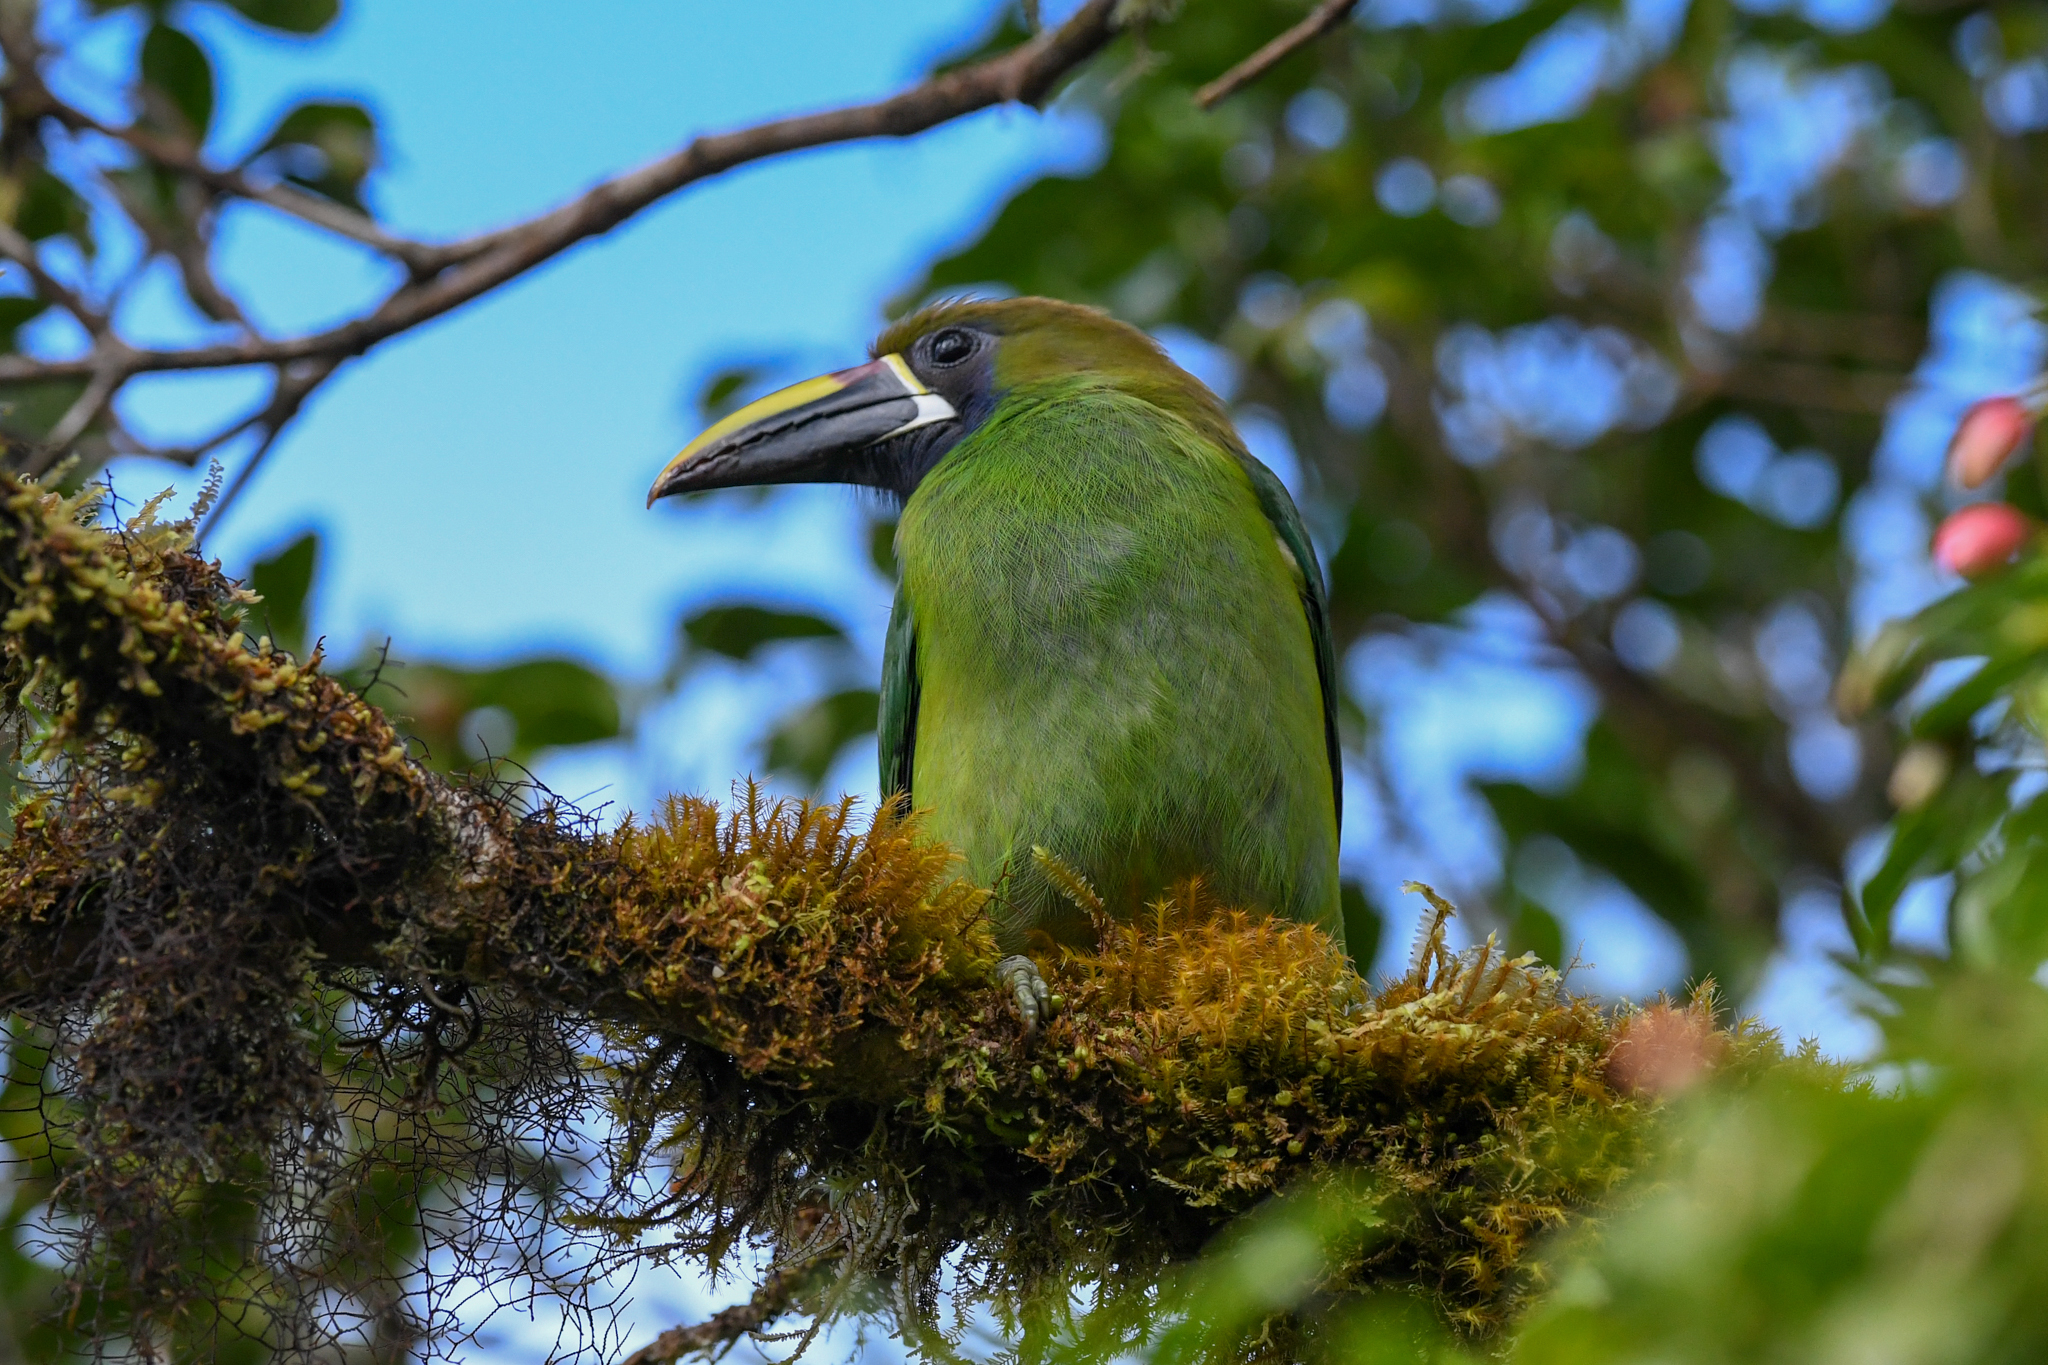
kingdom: Animalia
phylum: Chordata
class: Aves
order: Piciformes
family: Ramphastidae
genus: Aulacorhynchus
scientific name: Aulacorhynchus prasinus
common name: Emerald toucanet
